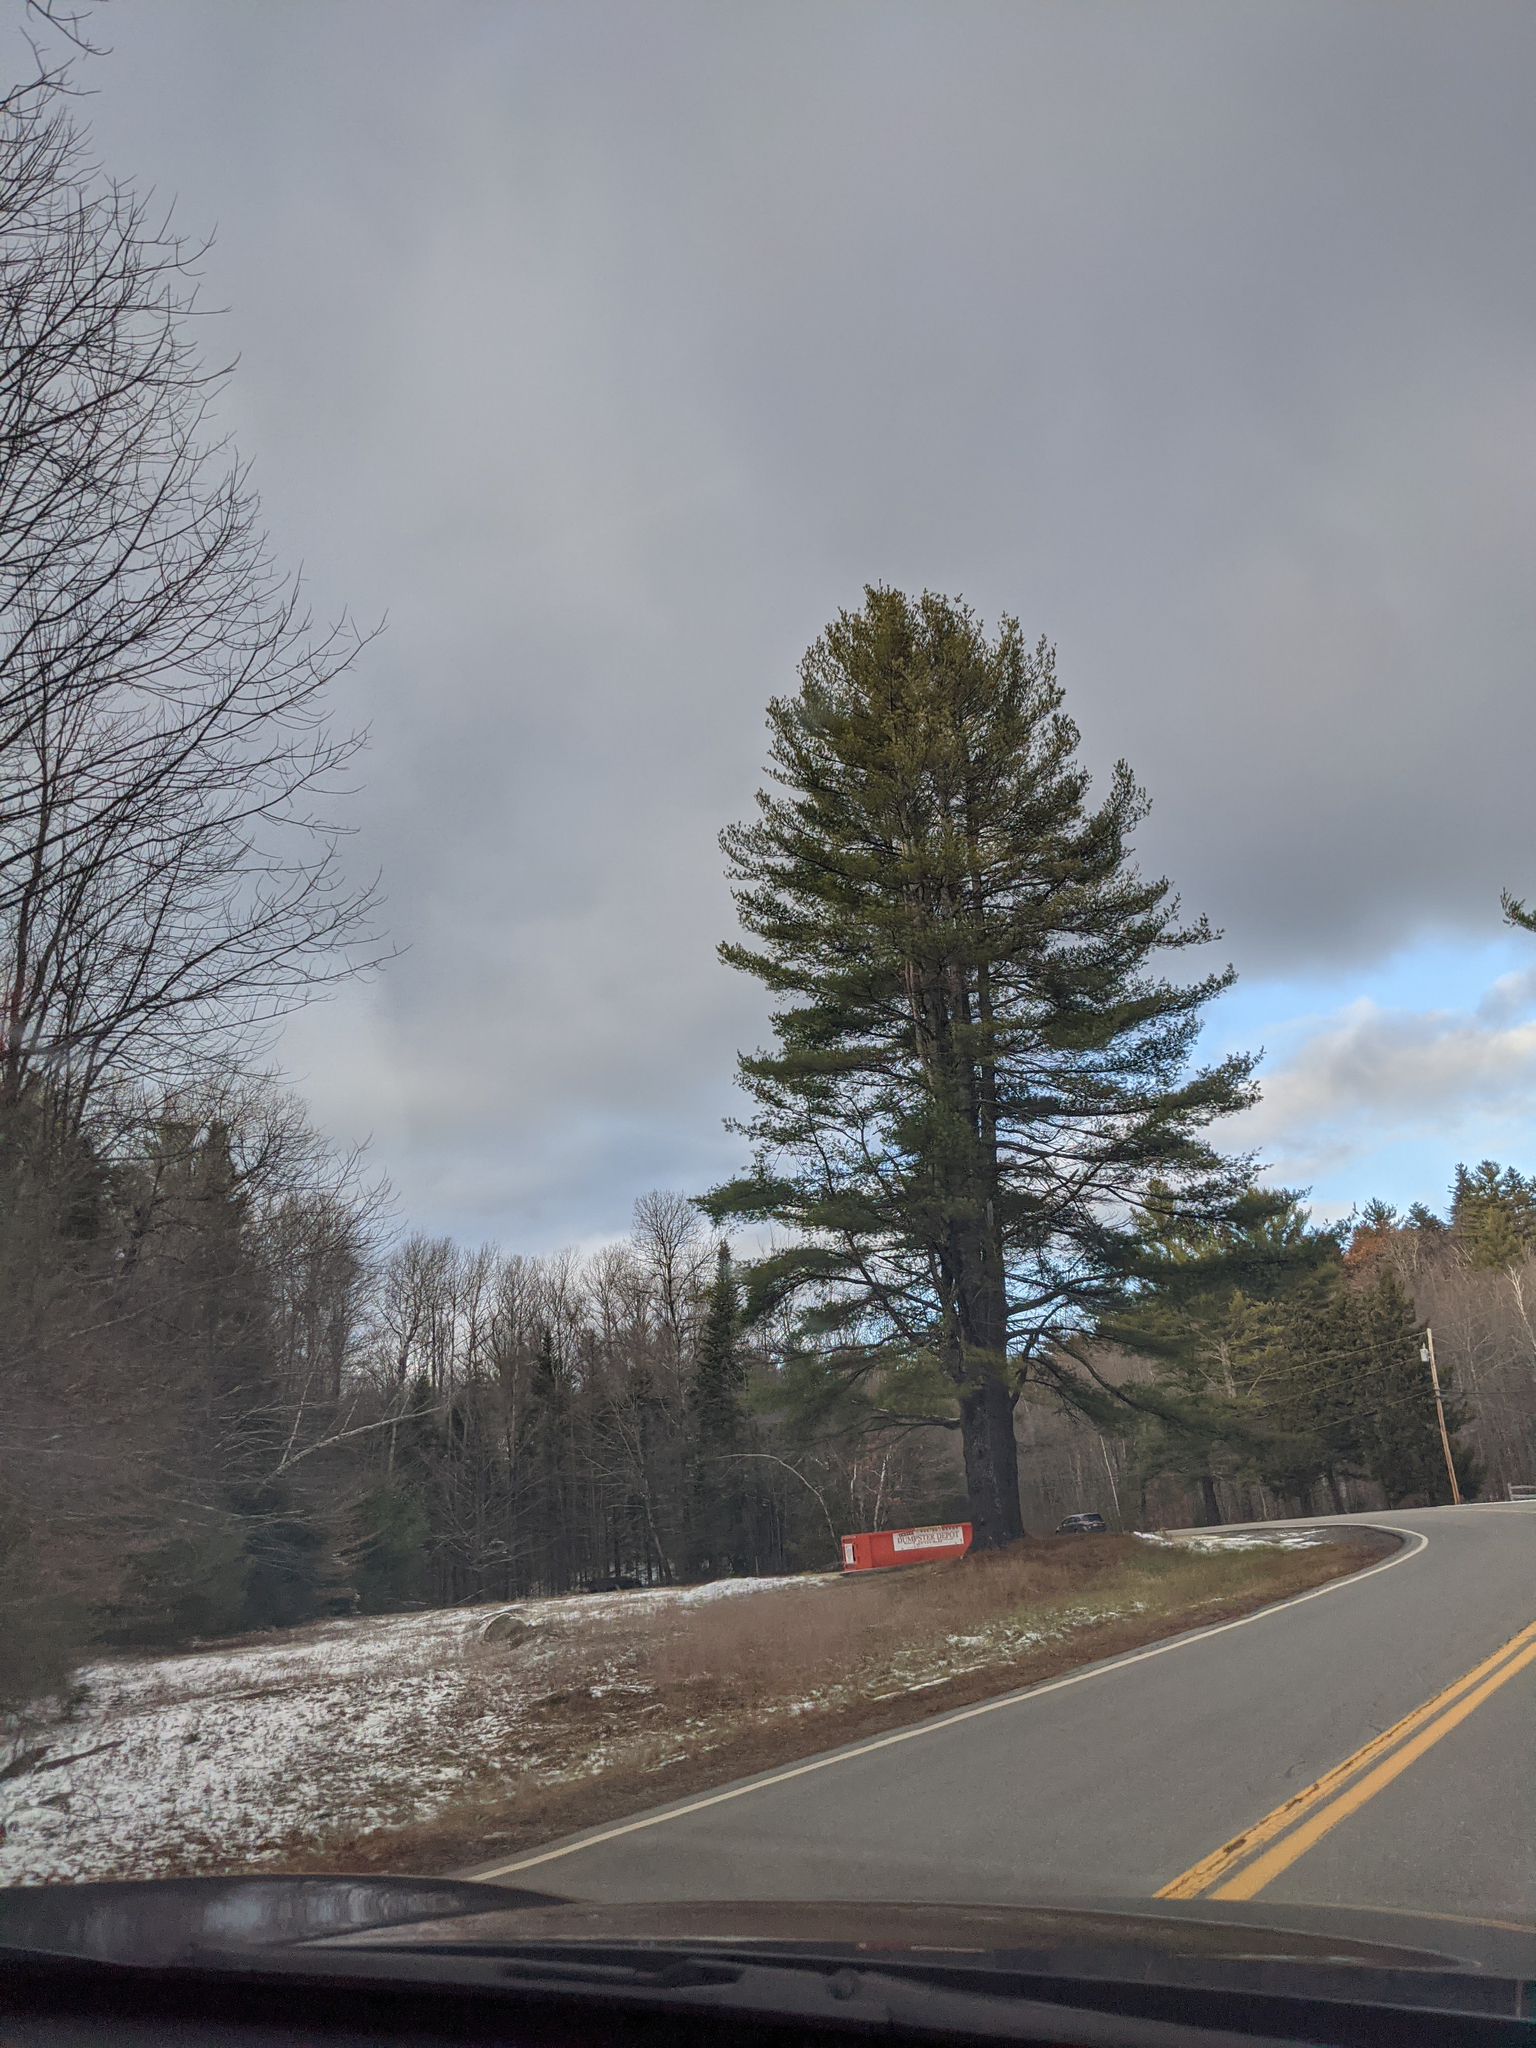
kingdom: Plantae
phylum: Tracheophyta
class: Pinopsida
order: Pinales
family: Pinaceae
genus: Pinus
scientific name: Pinus strobus
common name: Weymouth pine
